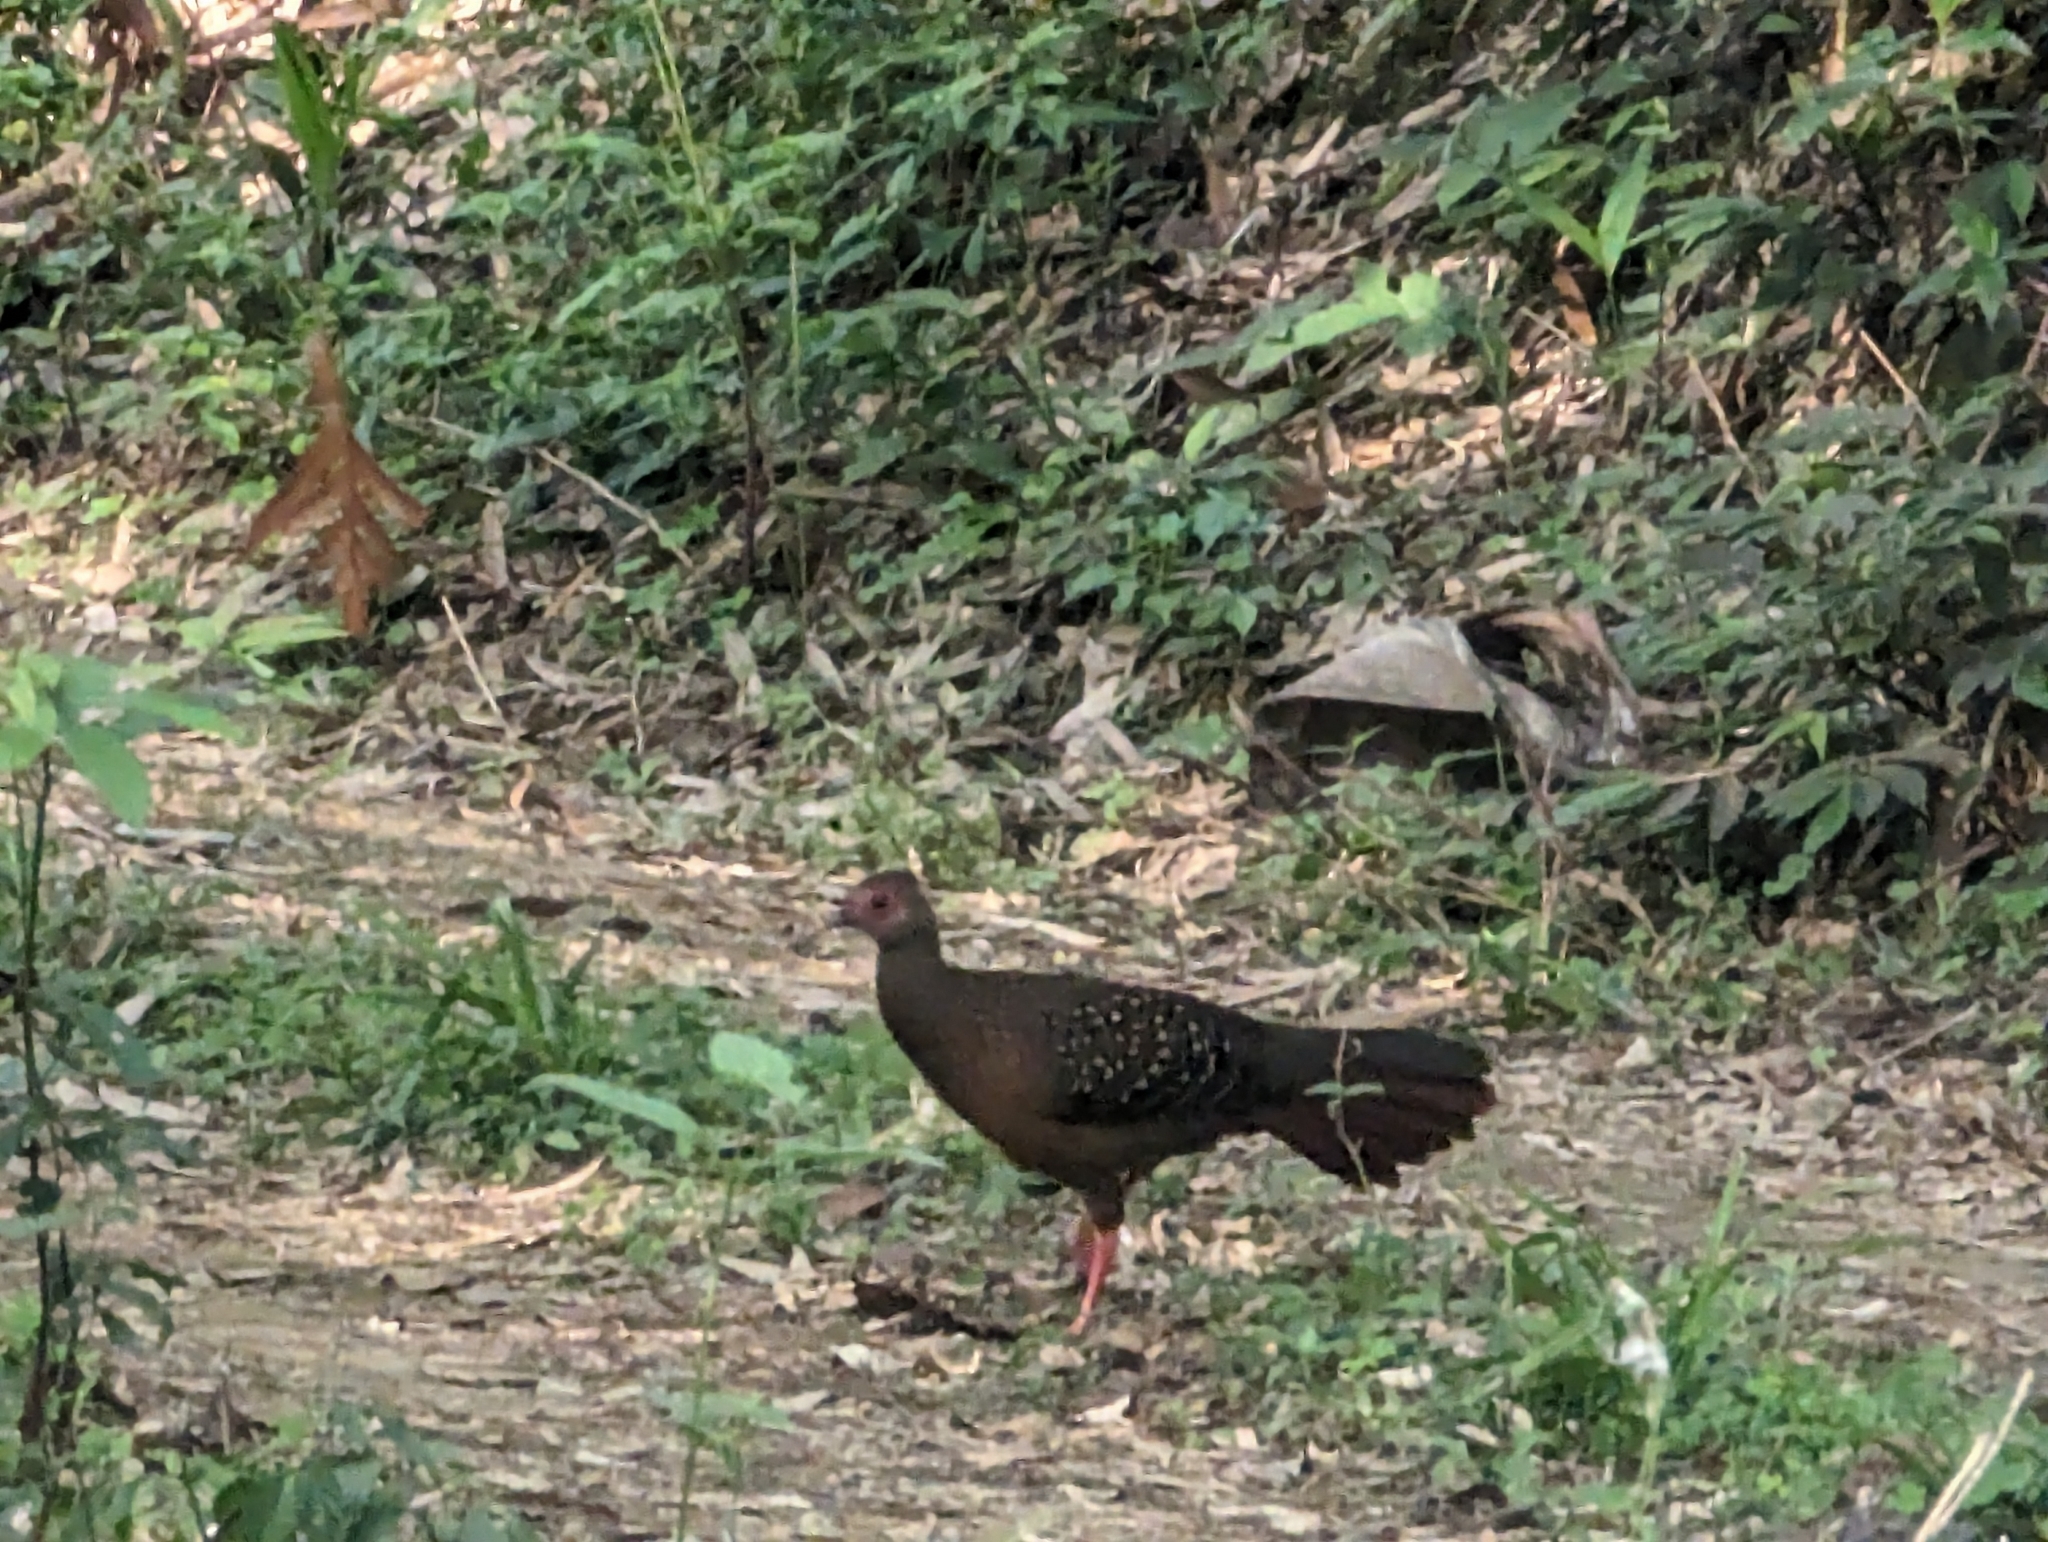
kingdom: Animalia
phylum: Chordata
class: Aves
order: Galliformes
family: Phasianidae
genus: Lophura
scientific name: Lophura swinhoii
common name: Swinhoe's pheasant
